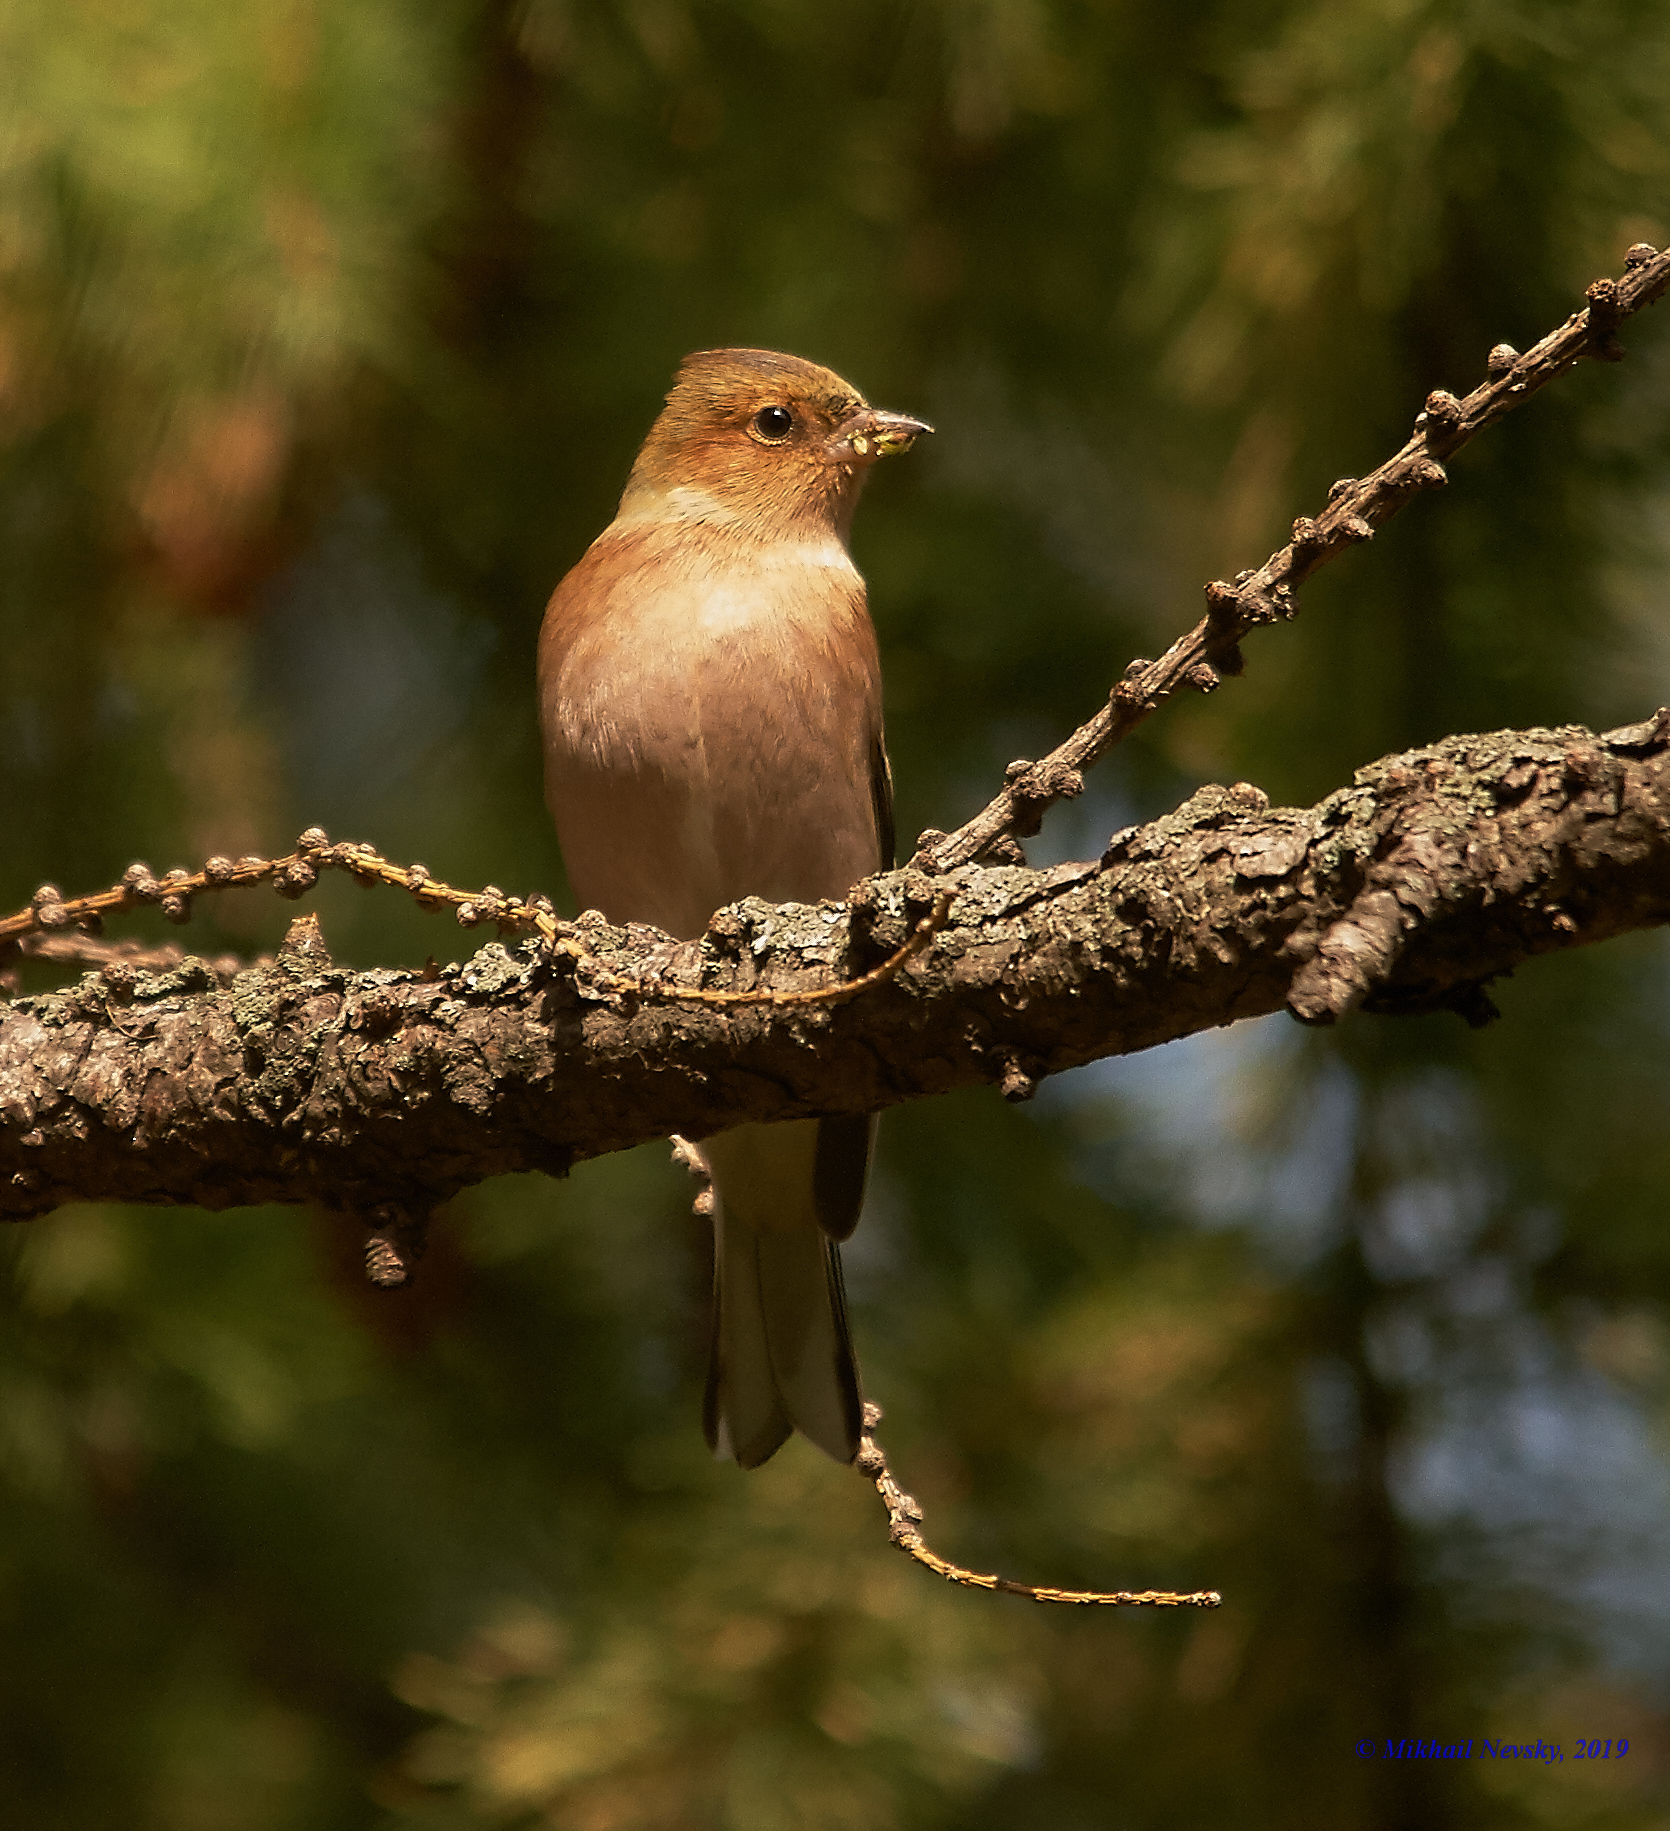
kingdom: Animalia
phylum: Chordata
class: Aves
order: Passeriformes
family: Fringillidae
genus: Fringilla
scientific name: Fringilla coelebs
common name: Common chaffinch
